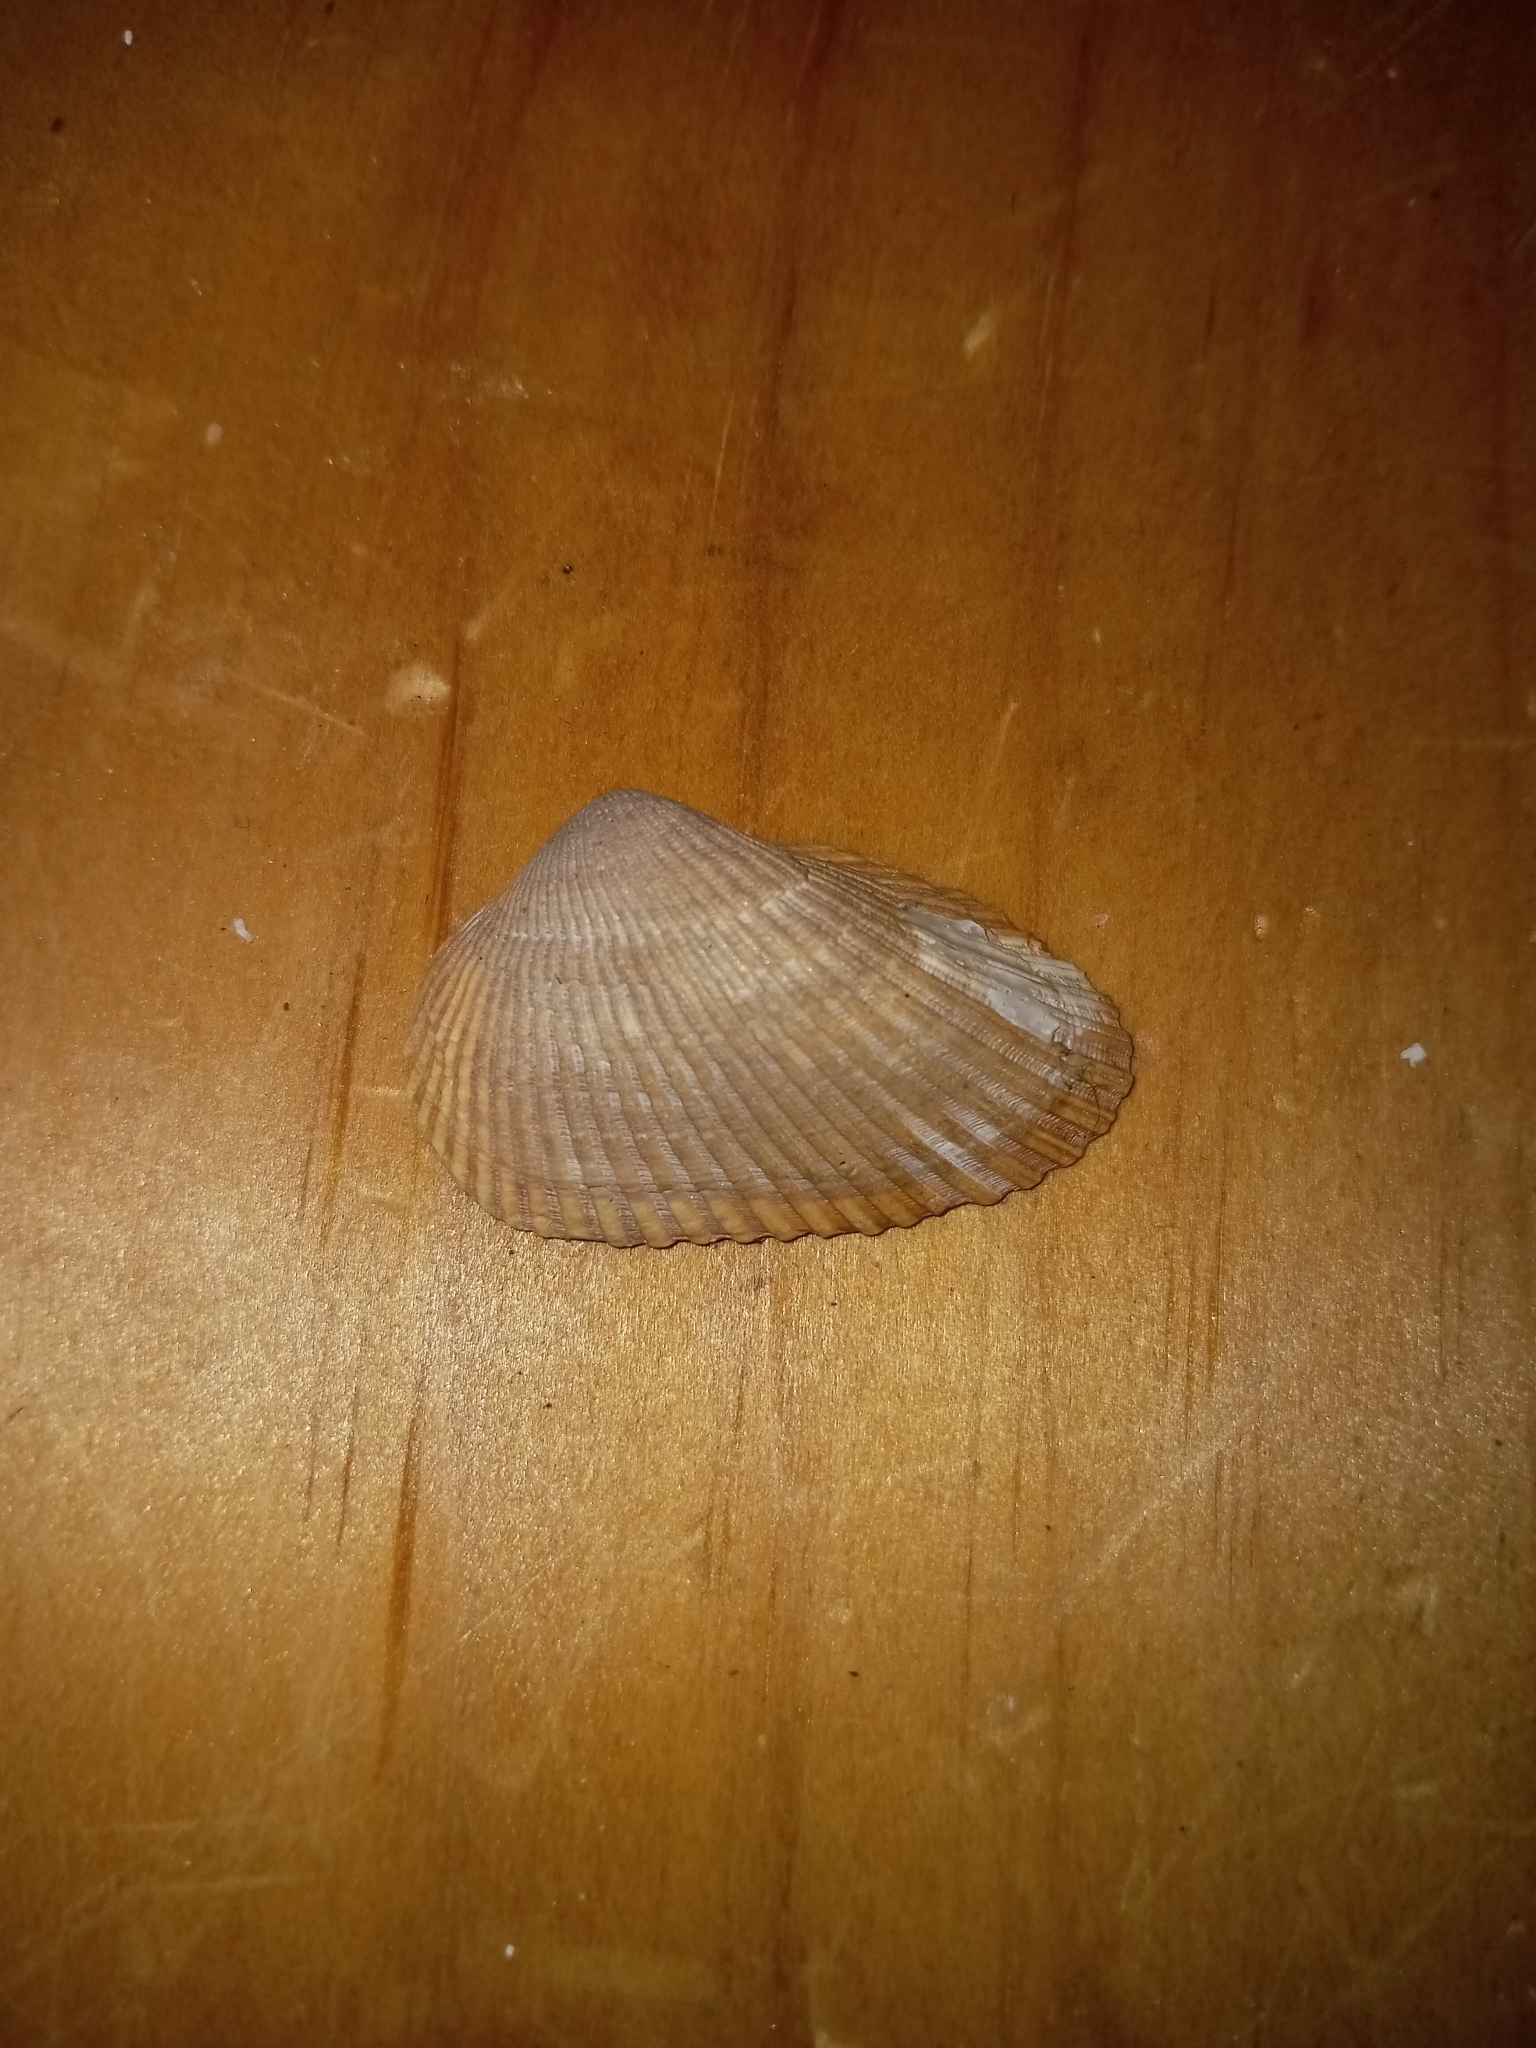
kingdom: Animalia
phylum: Mollusca
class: Bivalvia
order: Arcida
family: Arcidae
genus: Anadara
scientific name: Anadara transversa
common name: Transverse ark
